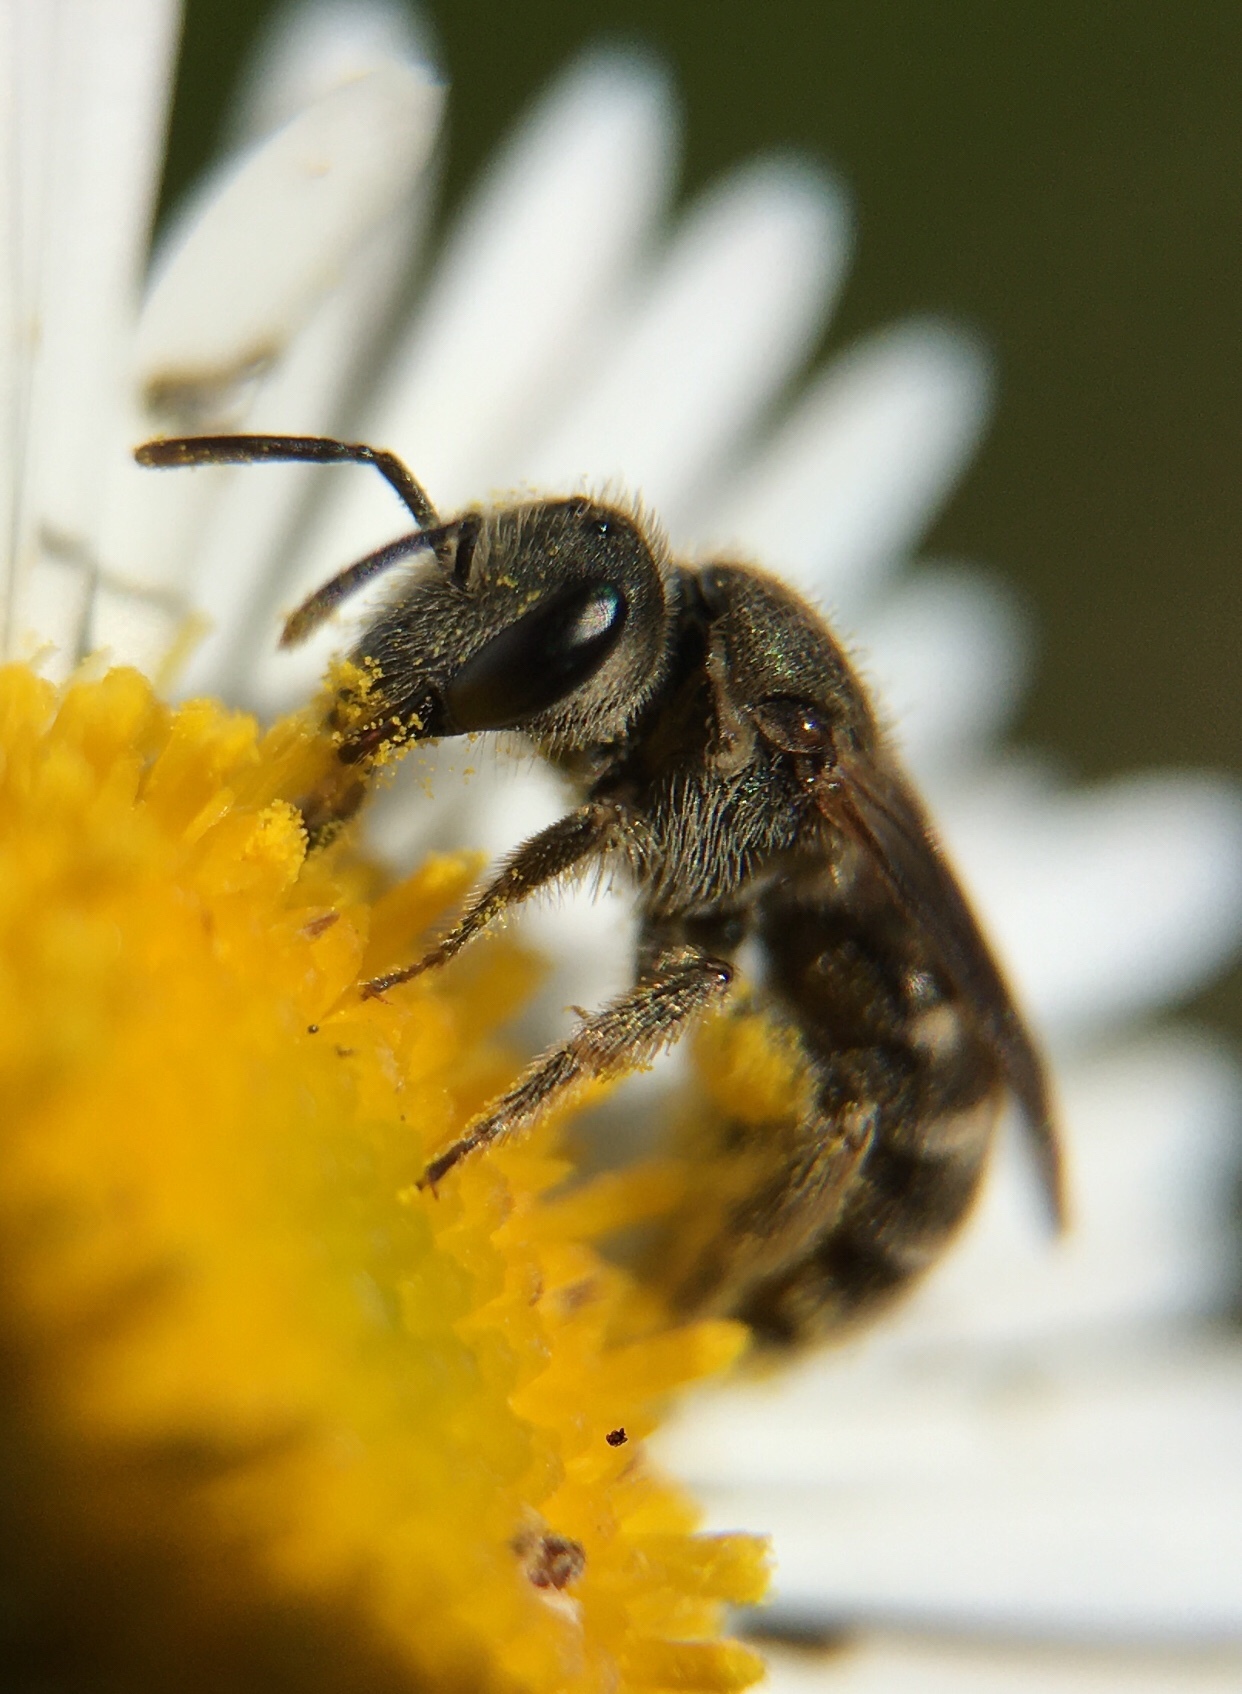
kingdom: Animalia
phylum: Arthropoda
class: Insecta
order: Hymenoptera
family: Halictidae
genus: Halictus
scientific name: Halictus tripartitus
